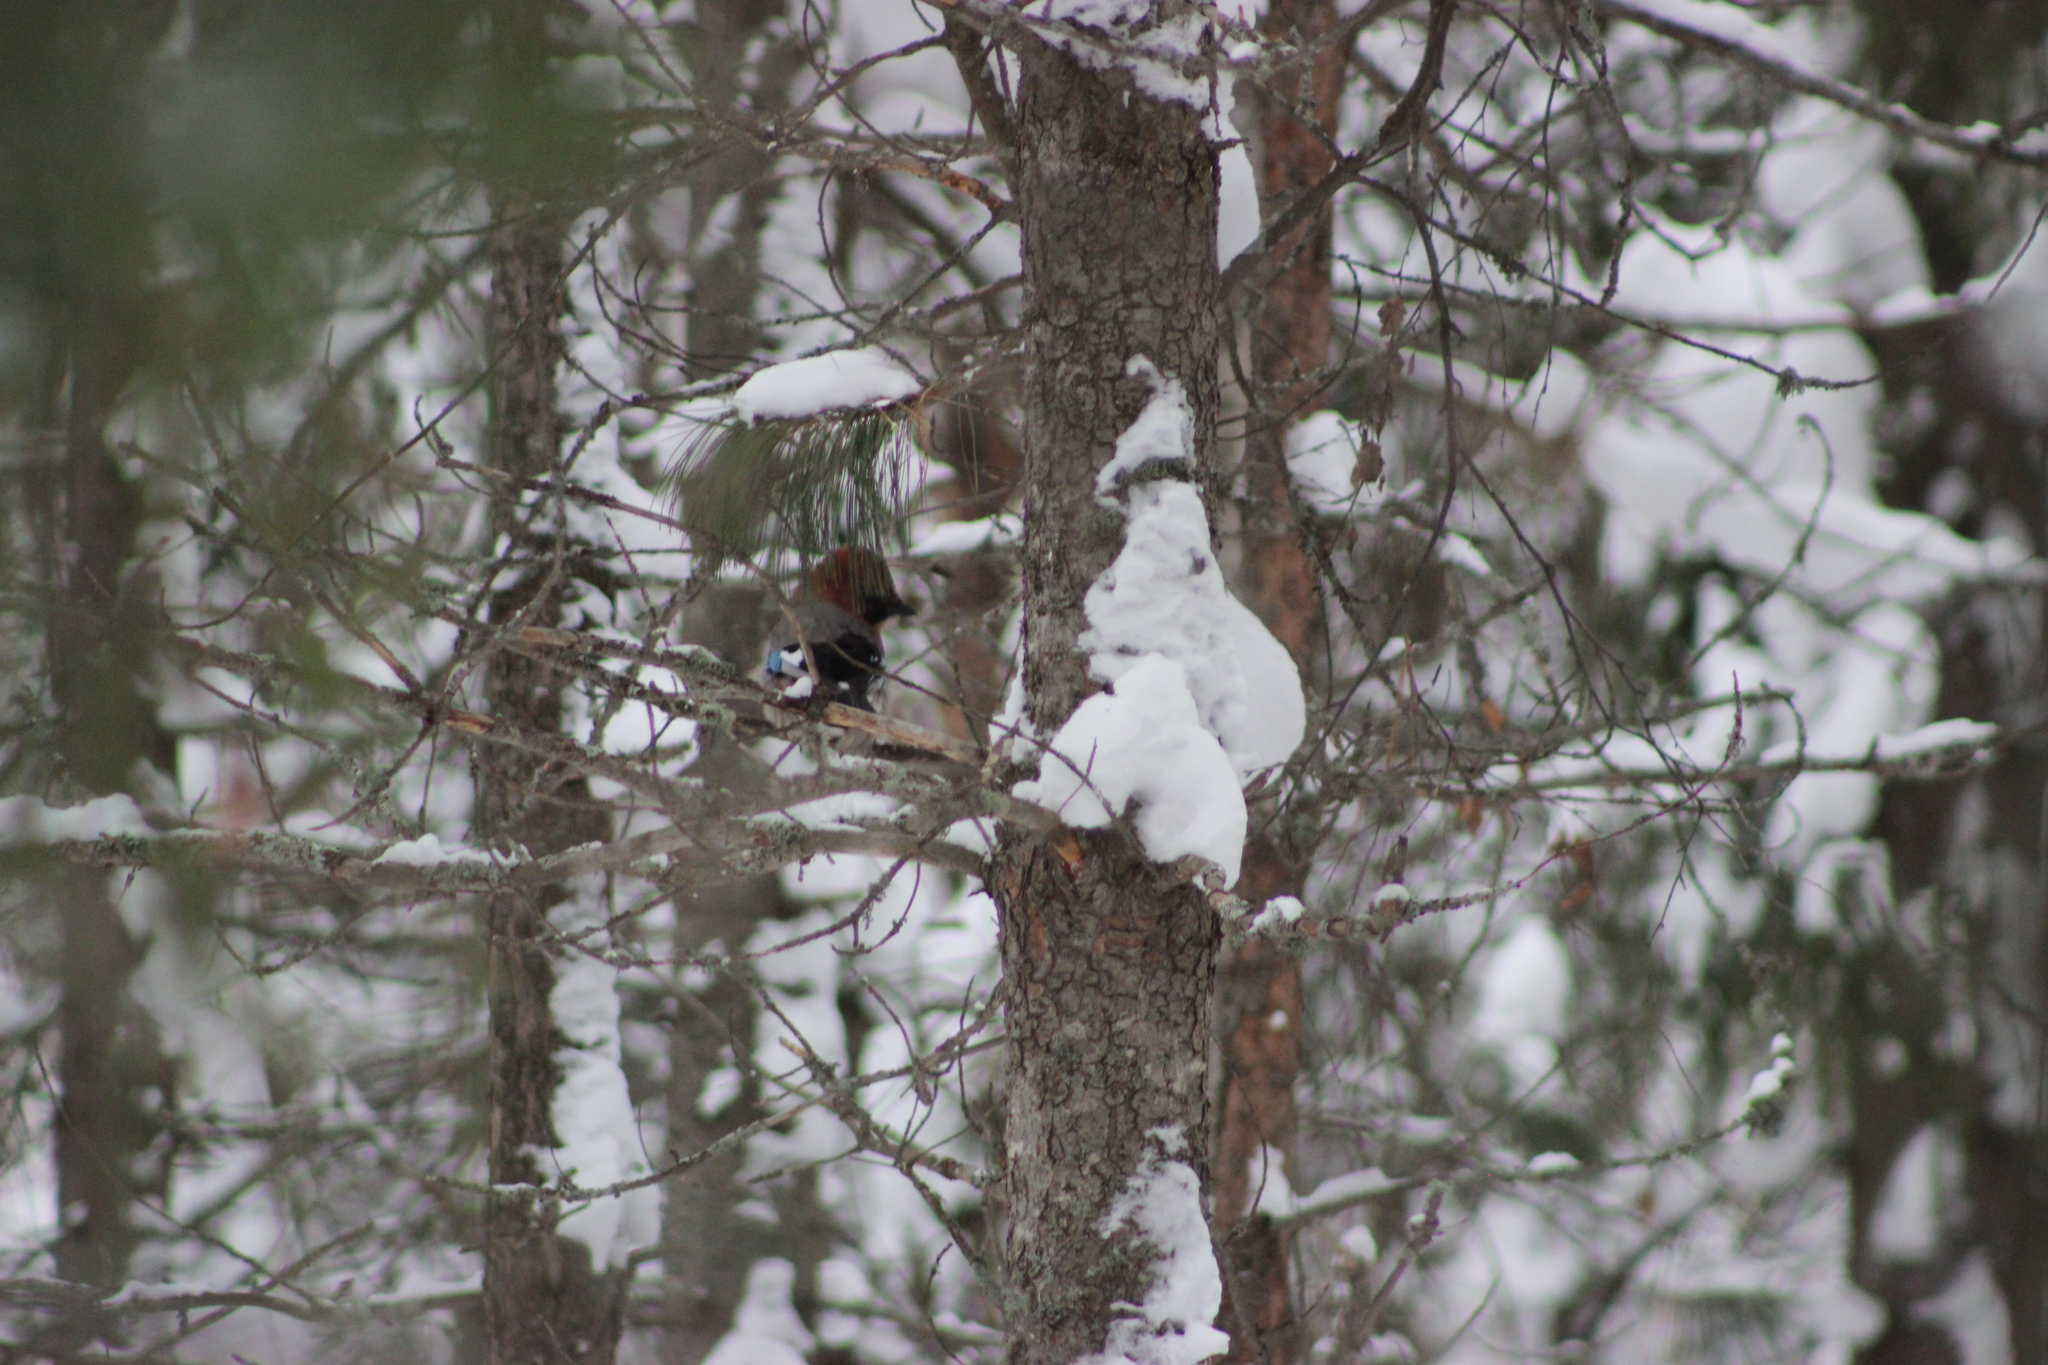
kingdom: Animalia
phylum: Chordata
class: Aves
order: Passeriformes
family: Corvidae
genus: Garrulus
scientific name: Garrulus glandarius
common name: Eurasian jay
